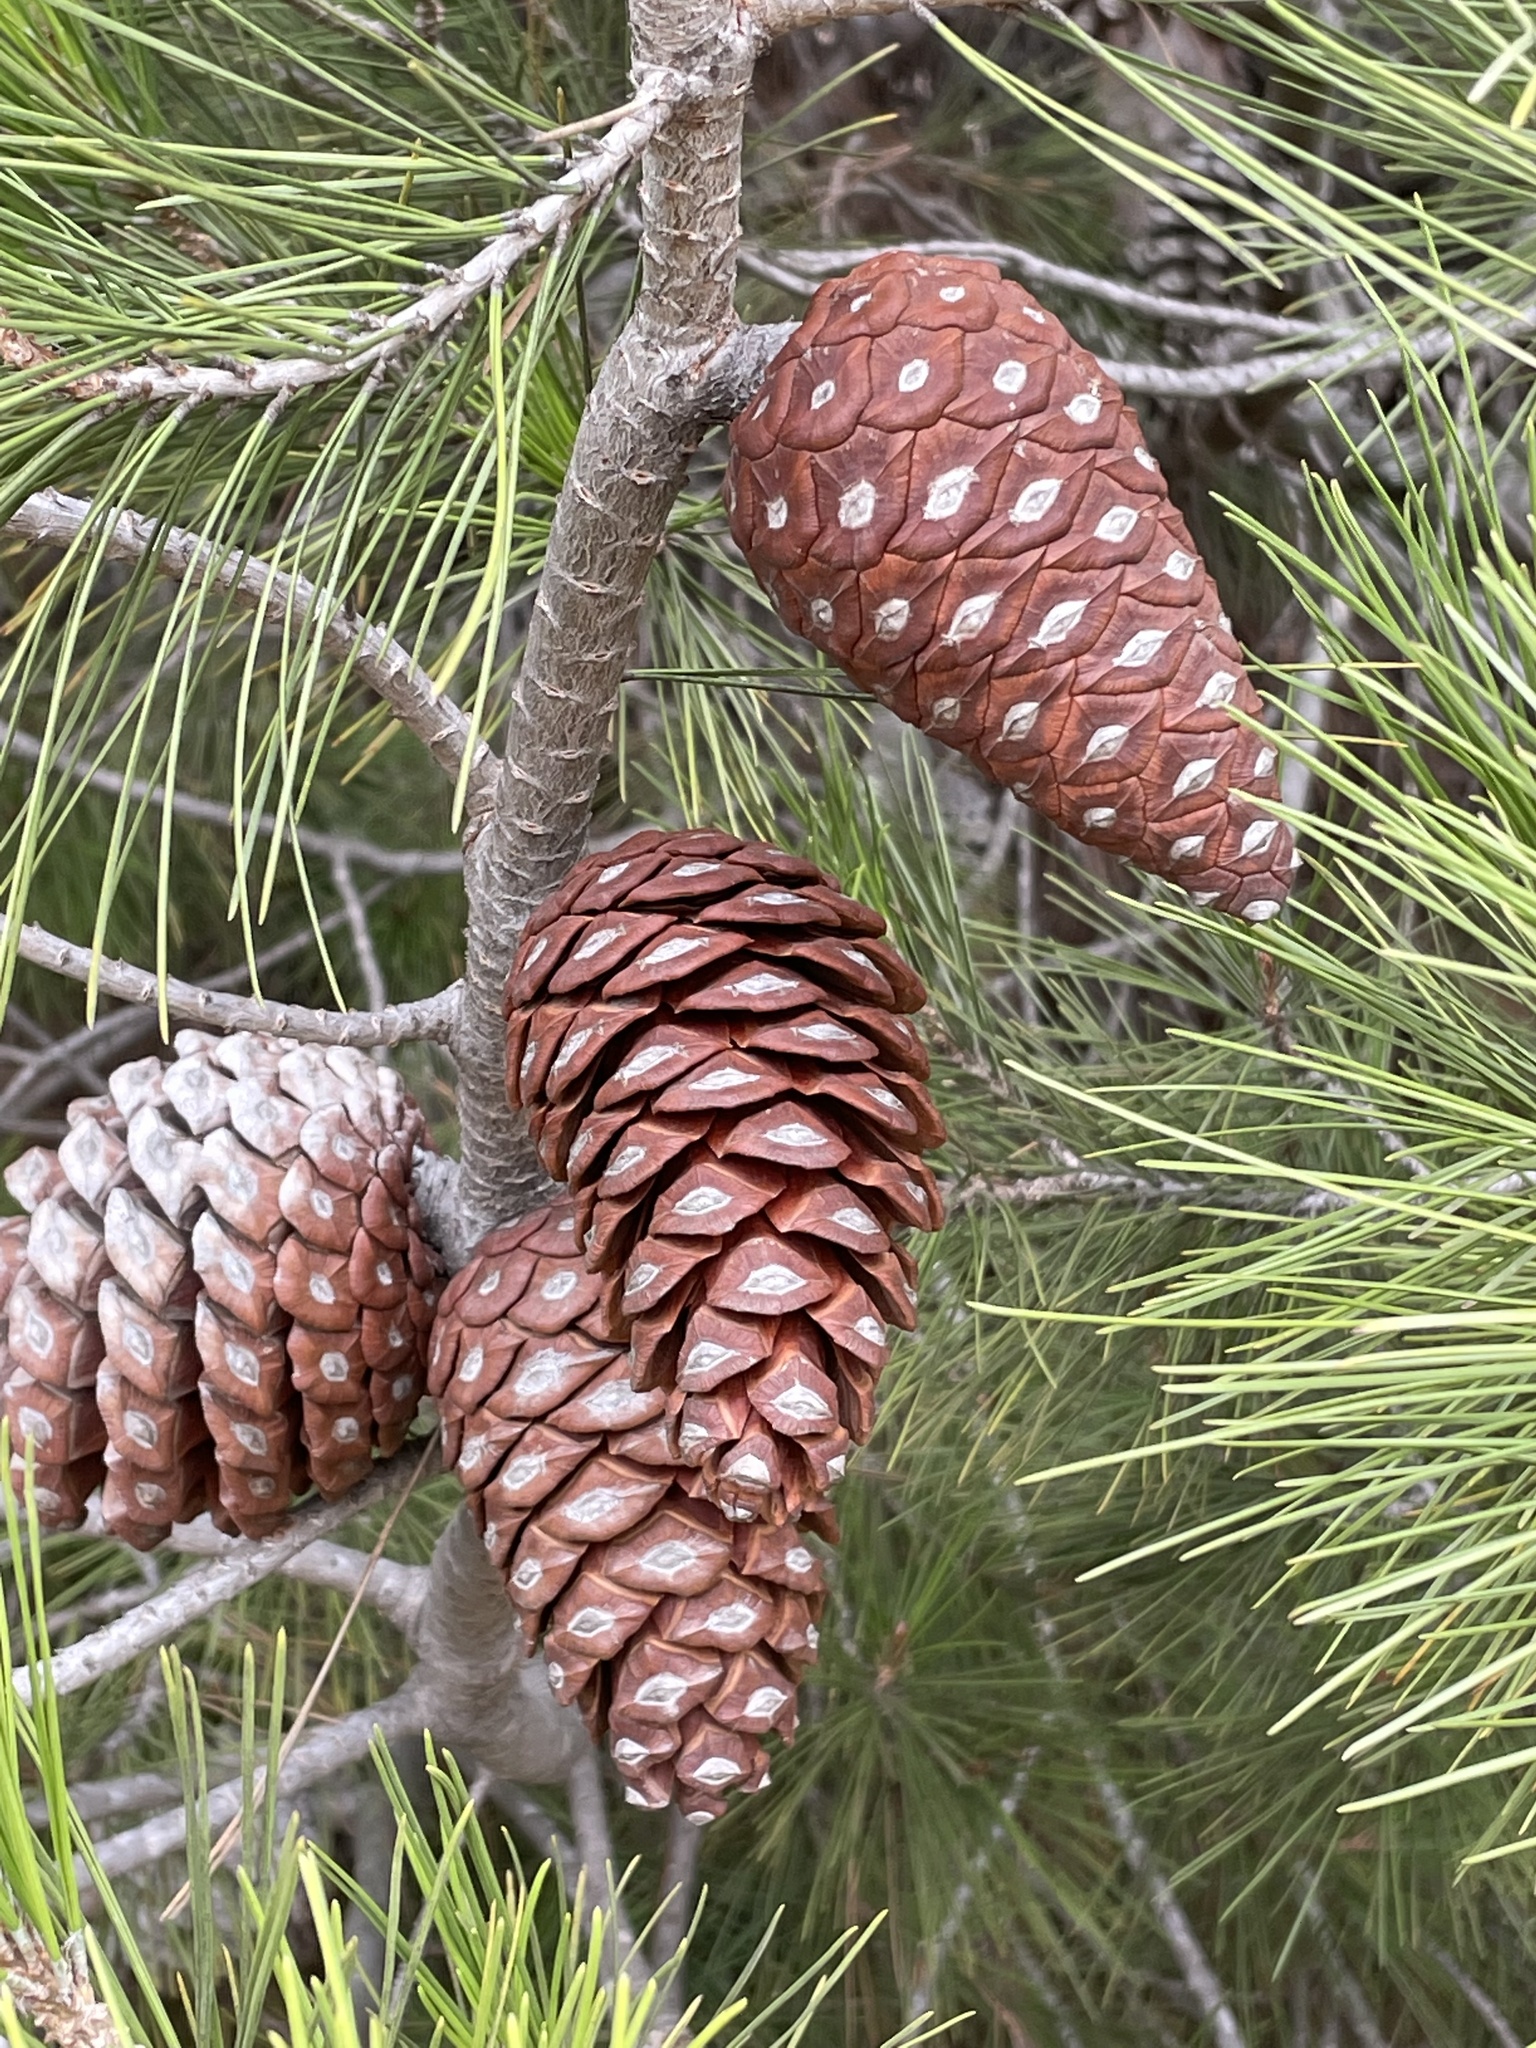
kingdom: Plantae
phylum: Tracheophyta
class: Pinopsida
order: Pinales
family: Pinaceae
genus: Pinus
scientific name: Pinus halepensis
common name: Aleppo pine
